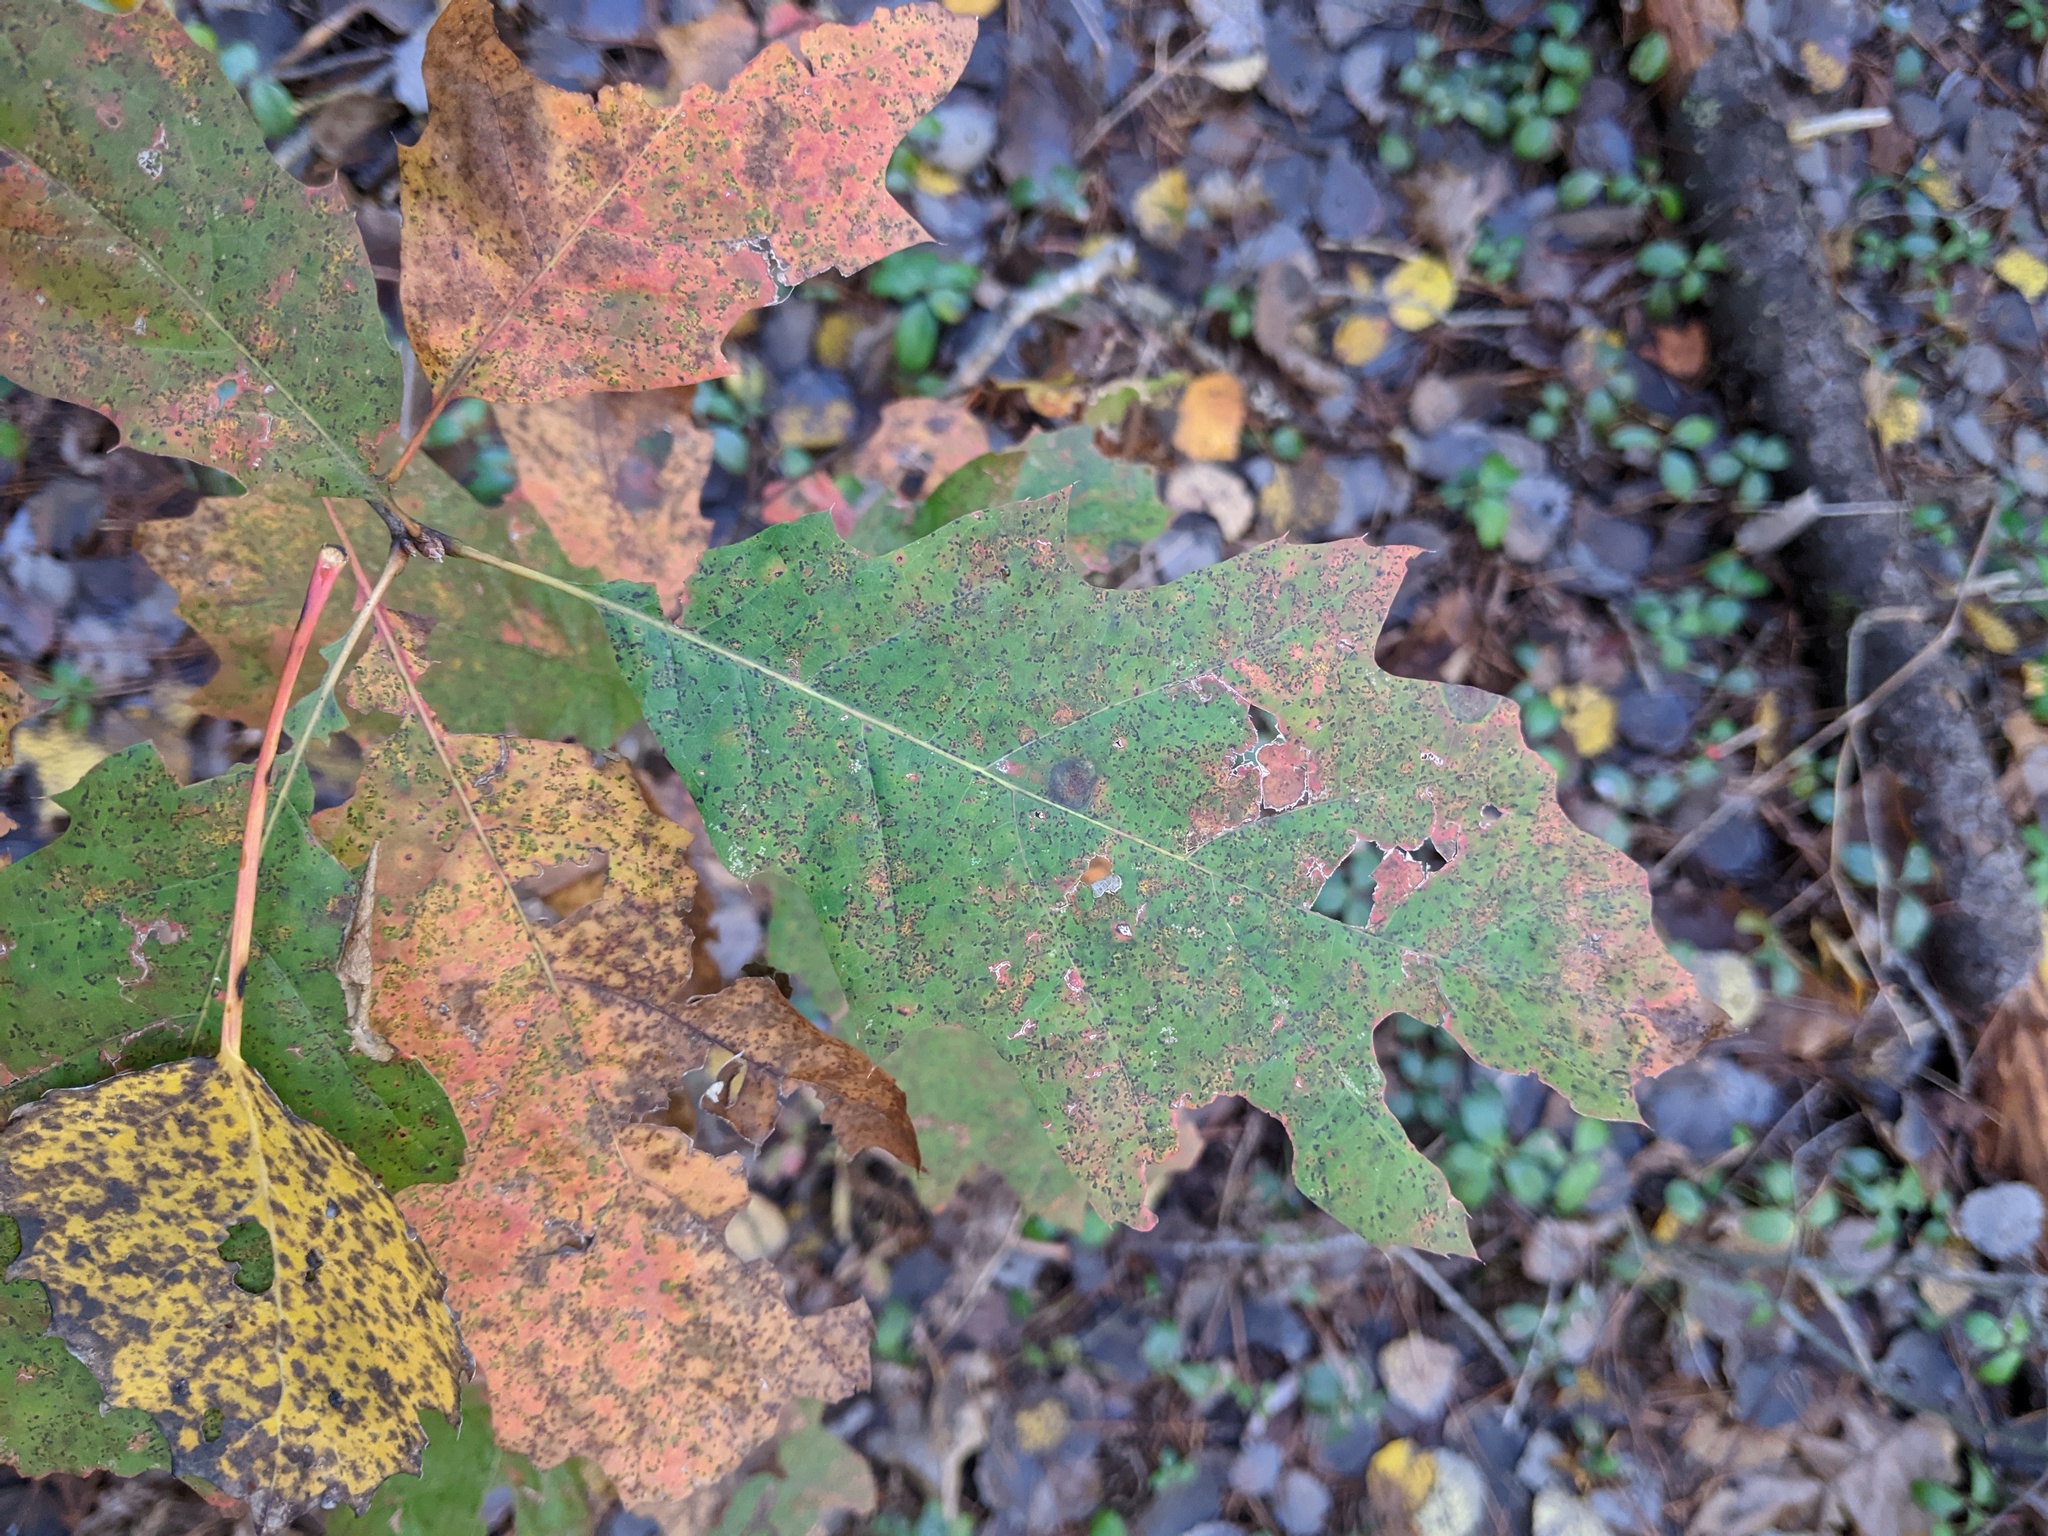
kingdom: Plantae
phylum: Tracheophyta
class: Magnoliopsida
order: Fagales
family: Fagaceae
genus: Quercus
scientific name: Quercus rubra
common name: Red oak
